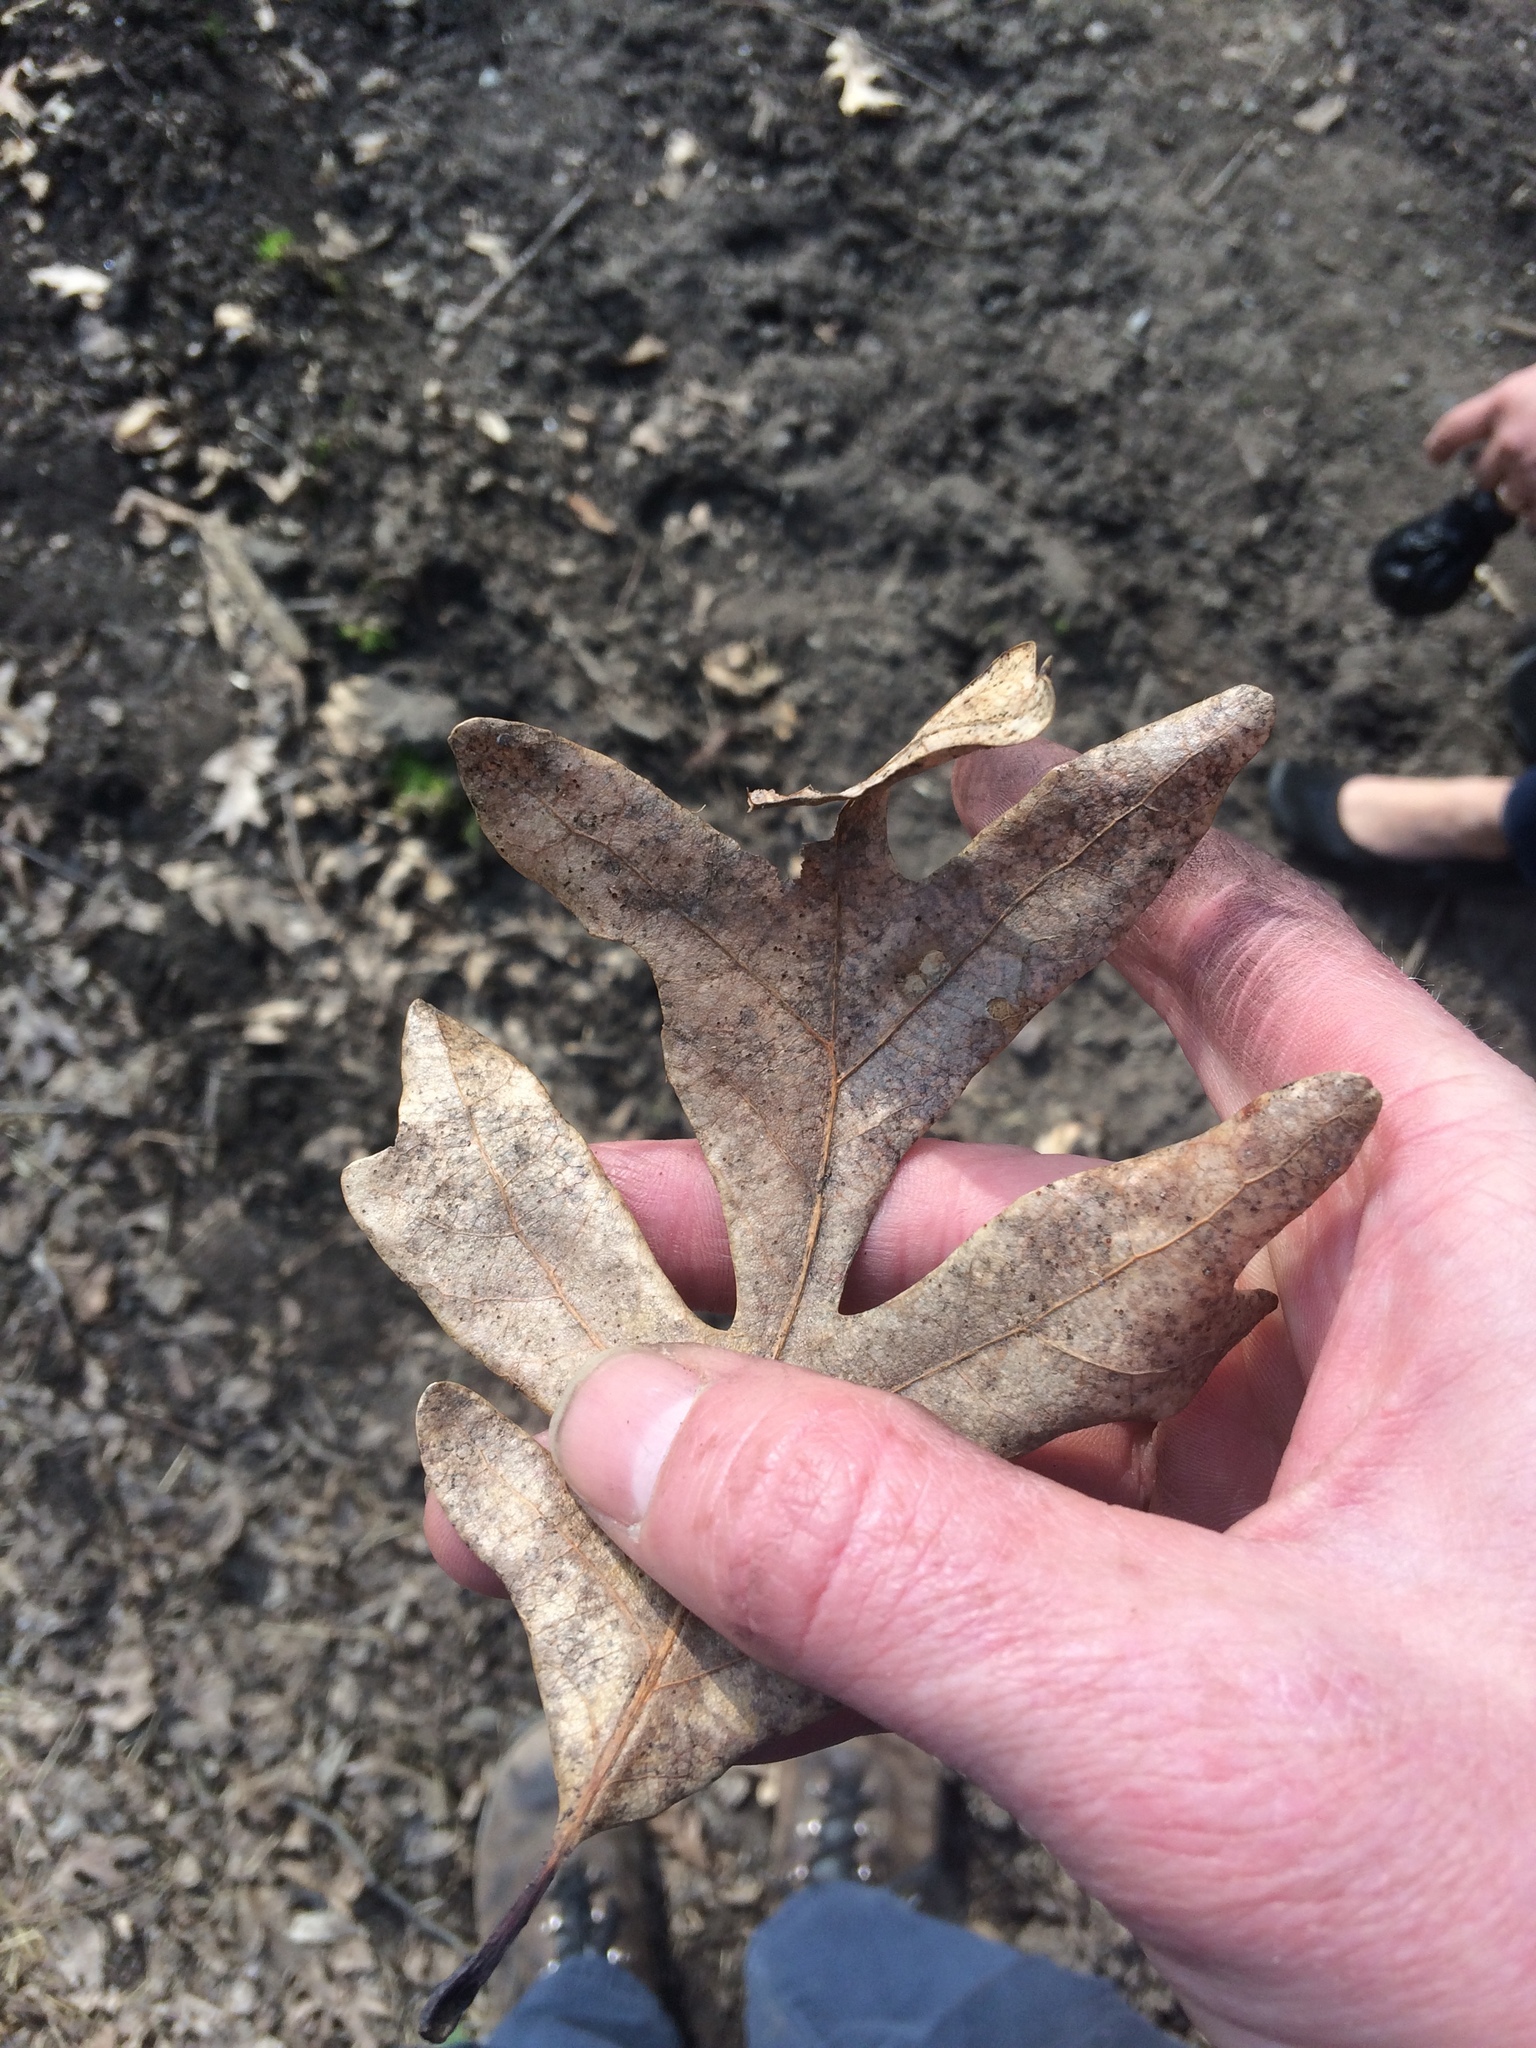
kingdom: Plantae
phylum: Tracheophyta
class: Magnoliopsida
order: Fagales
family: Fagaceae
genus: Quercus
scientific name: Quercus alba
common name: White oak
